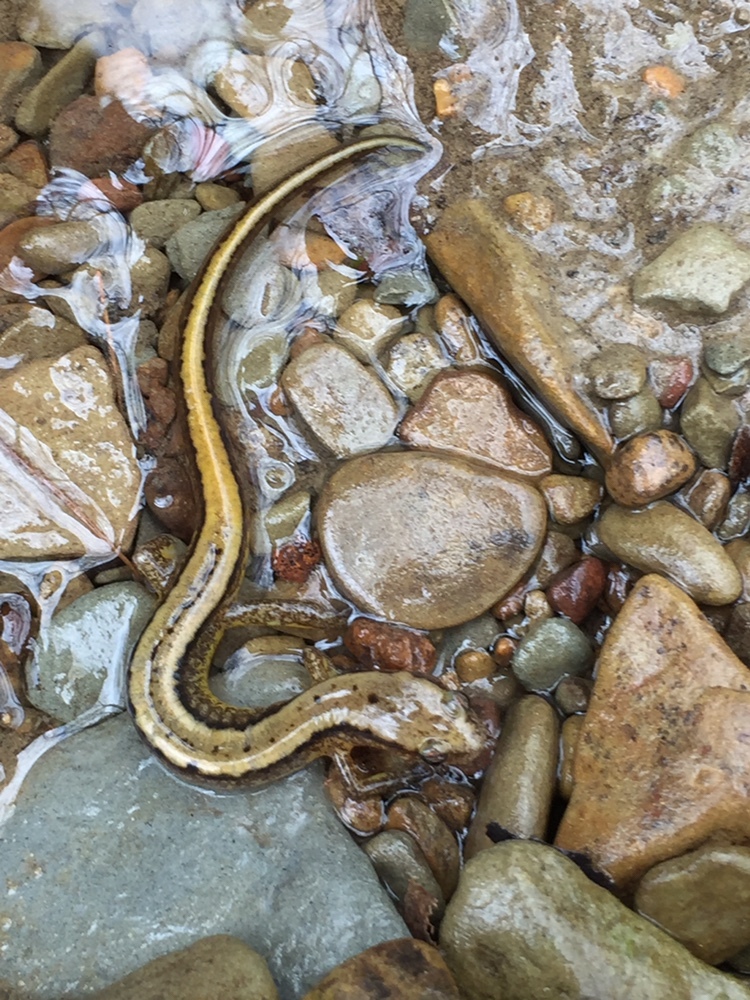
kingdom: Animalia
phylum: Chordata
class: Amphibia
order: Caudata
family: Plethodontidae
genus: Eurycea
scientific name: Eurycea cirrigera
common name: Southern two-lined salamander
